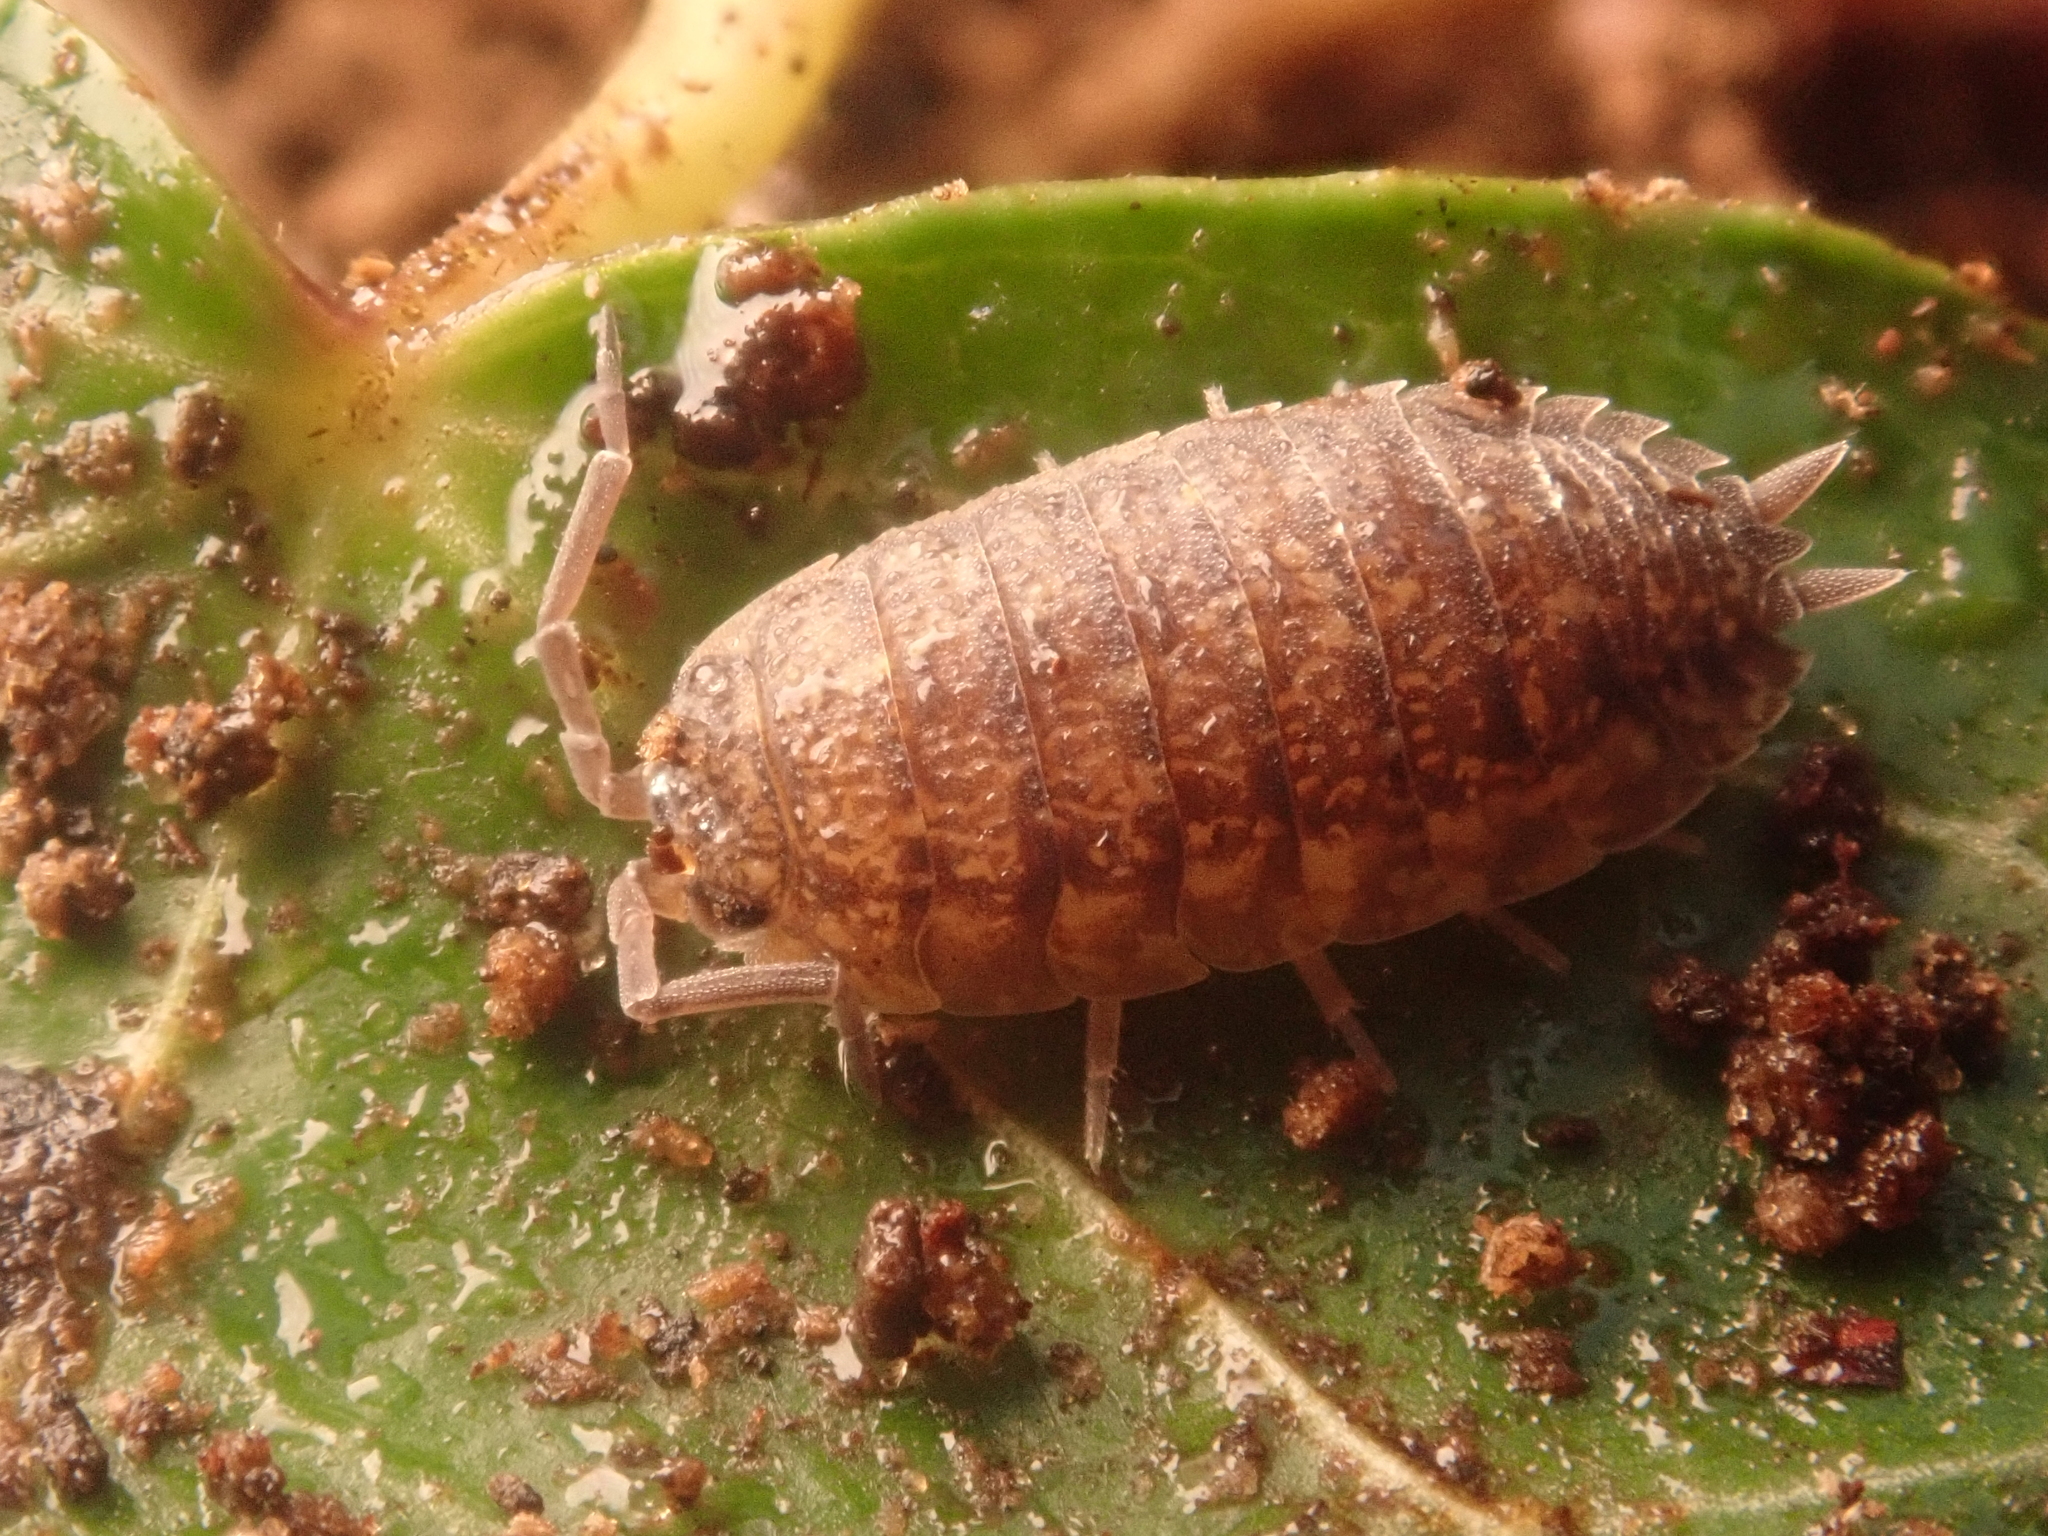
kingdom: Animalia
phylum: Arthropoda
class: Malacostraca
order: Isopoda
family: Porcellionidae
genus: Porcellio
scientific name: Porcellio scaber
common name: Common rough woodlouse
